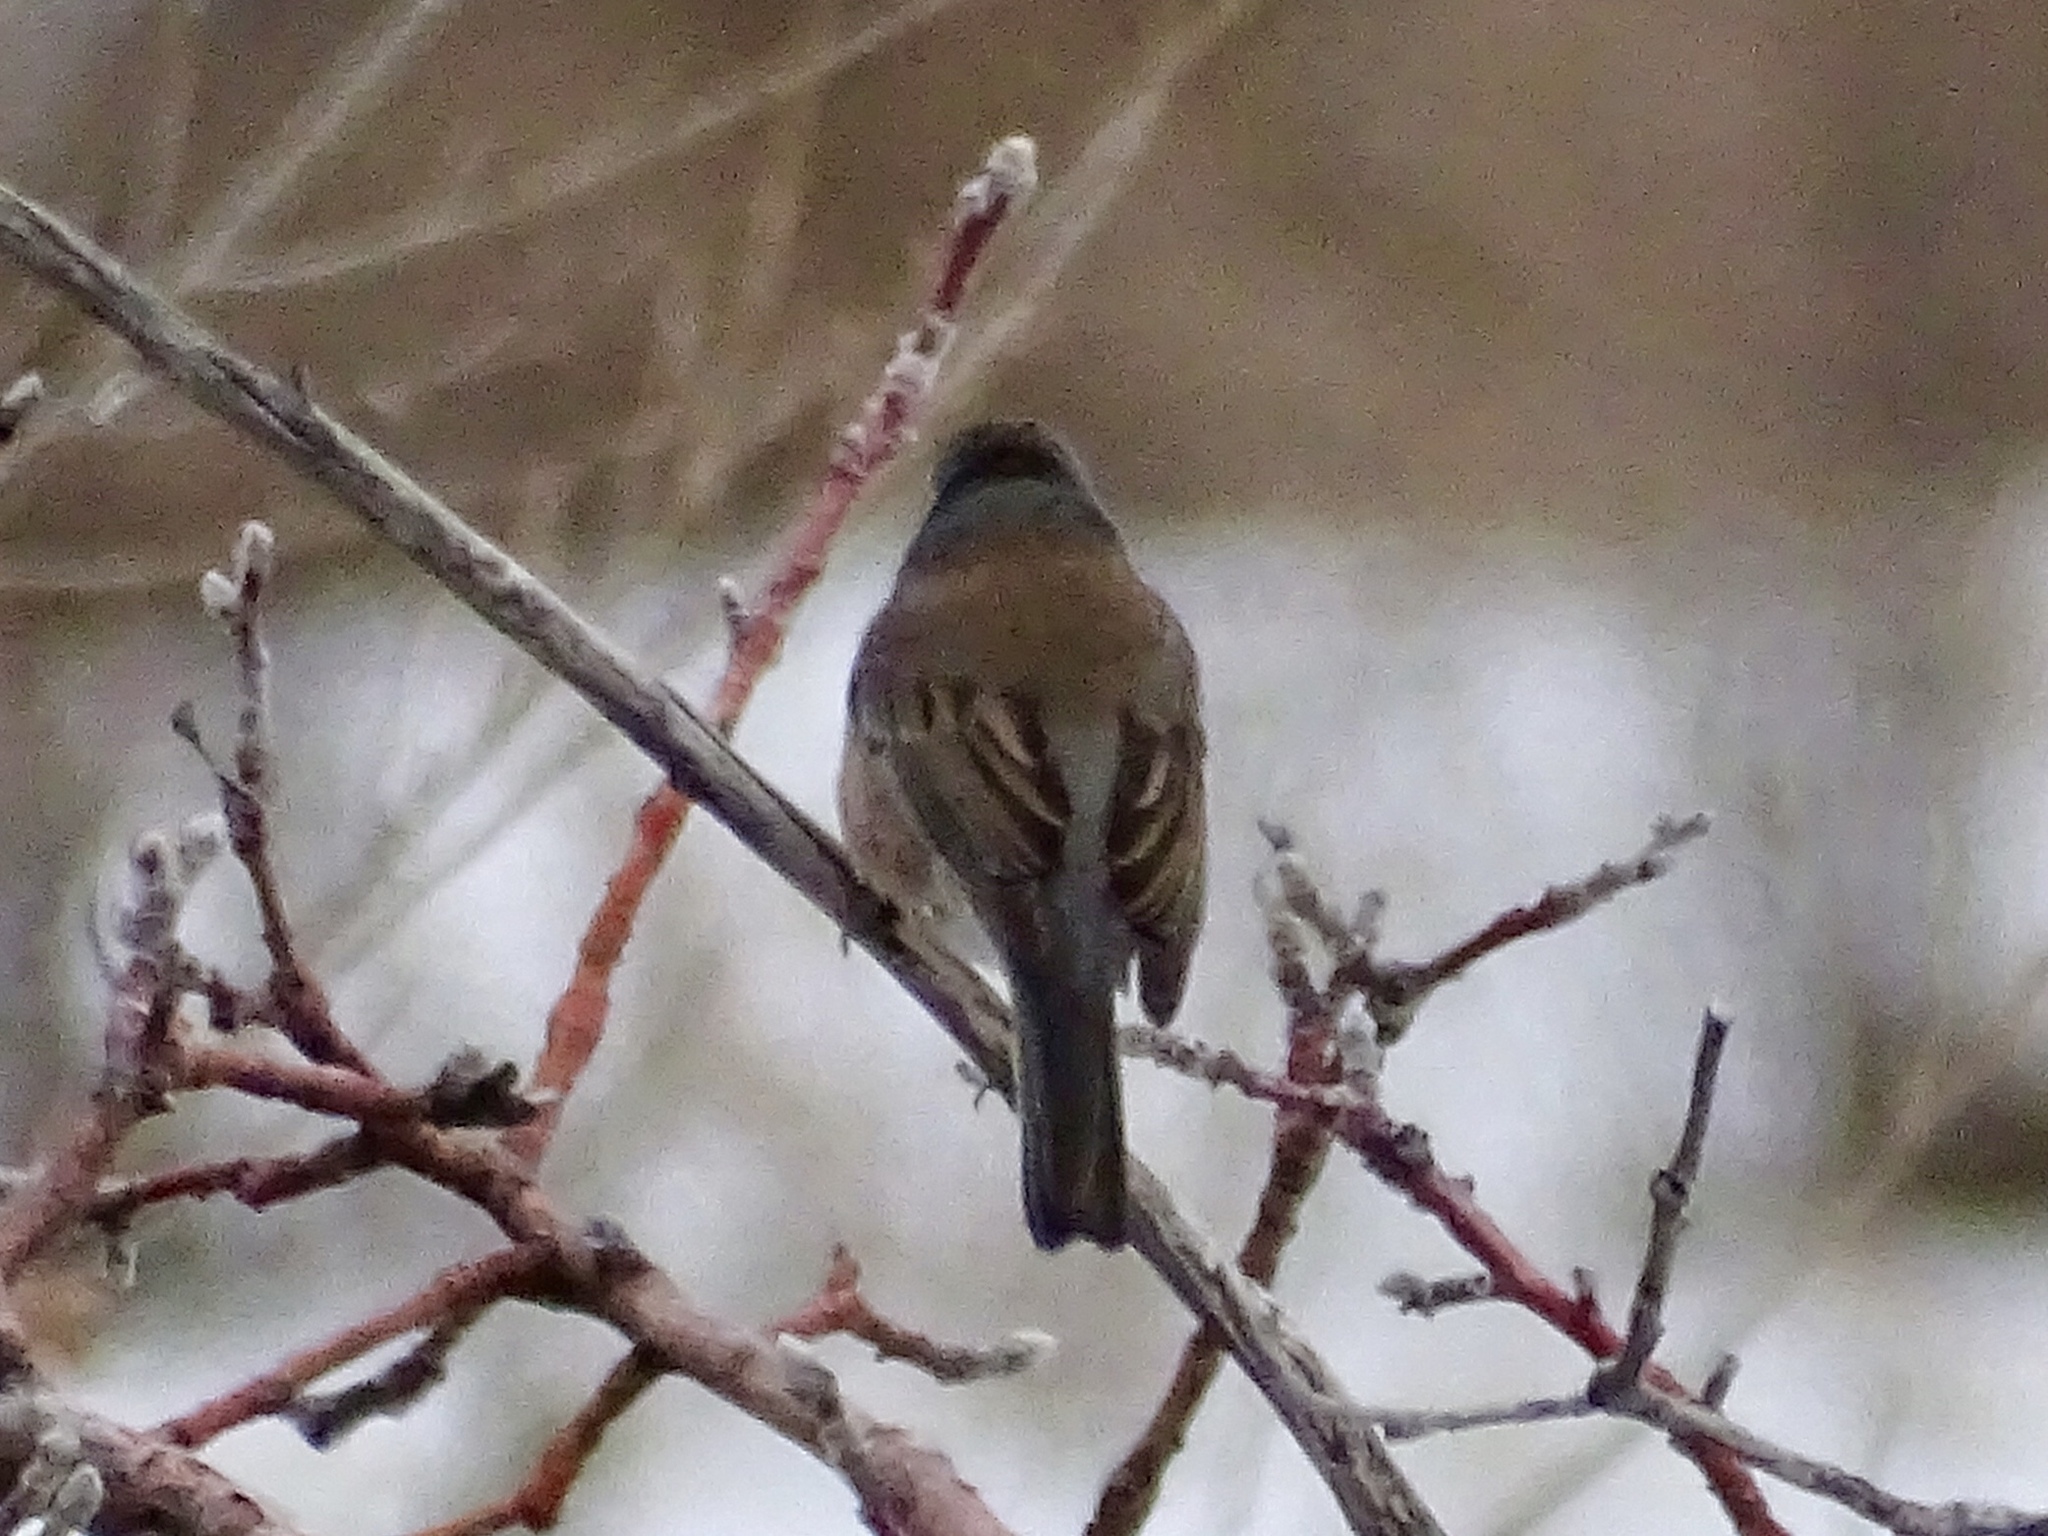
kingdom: Animalia
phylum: Chordata
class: Aves
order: Passeriformes
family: Passerellidae
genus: Junco
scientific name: Junco hyemalis
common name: Dark-eyed junco
